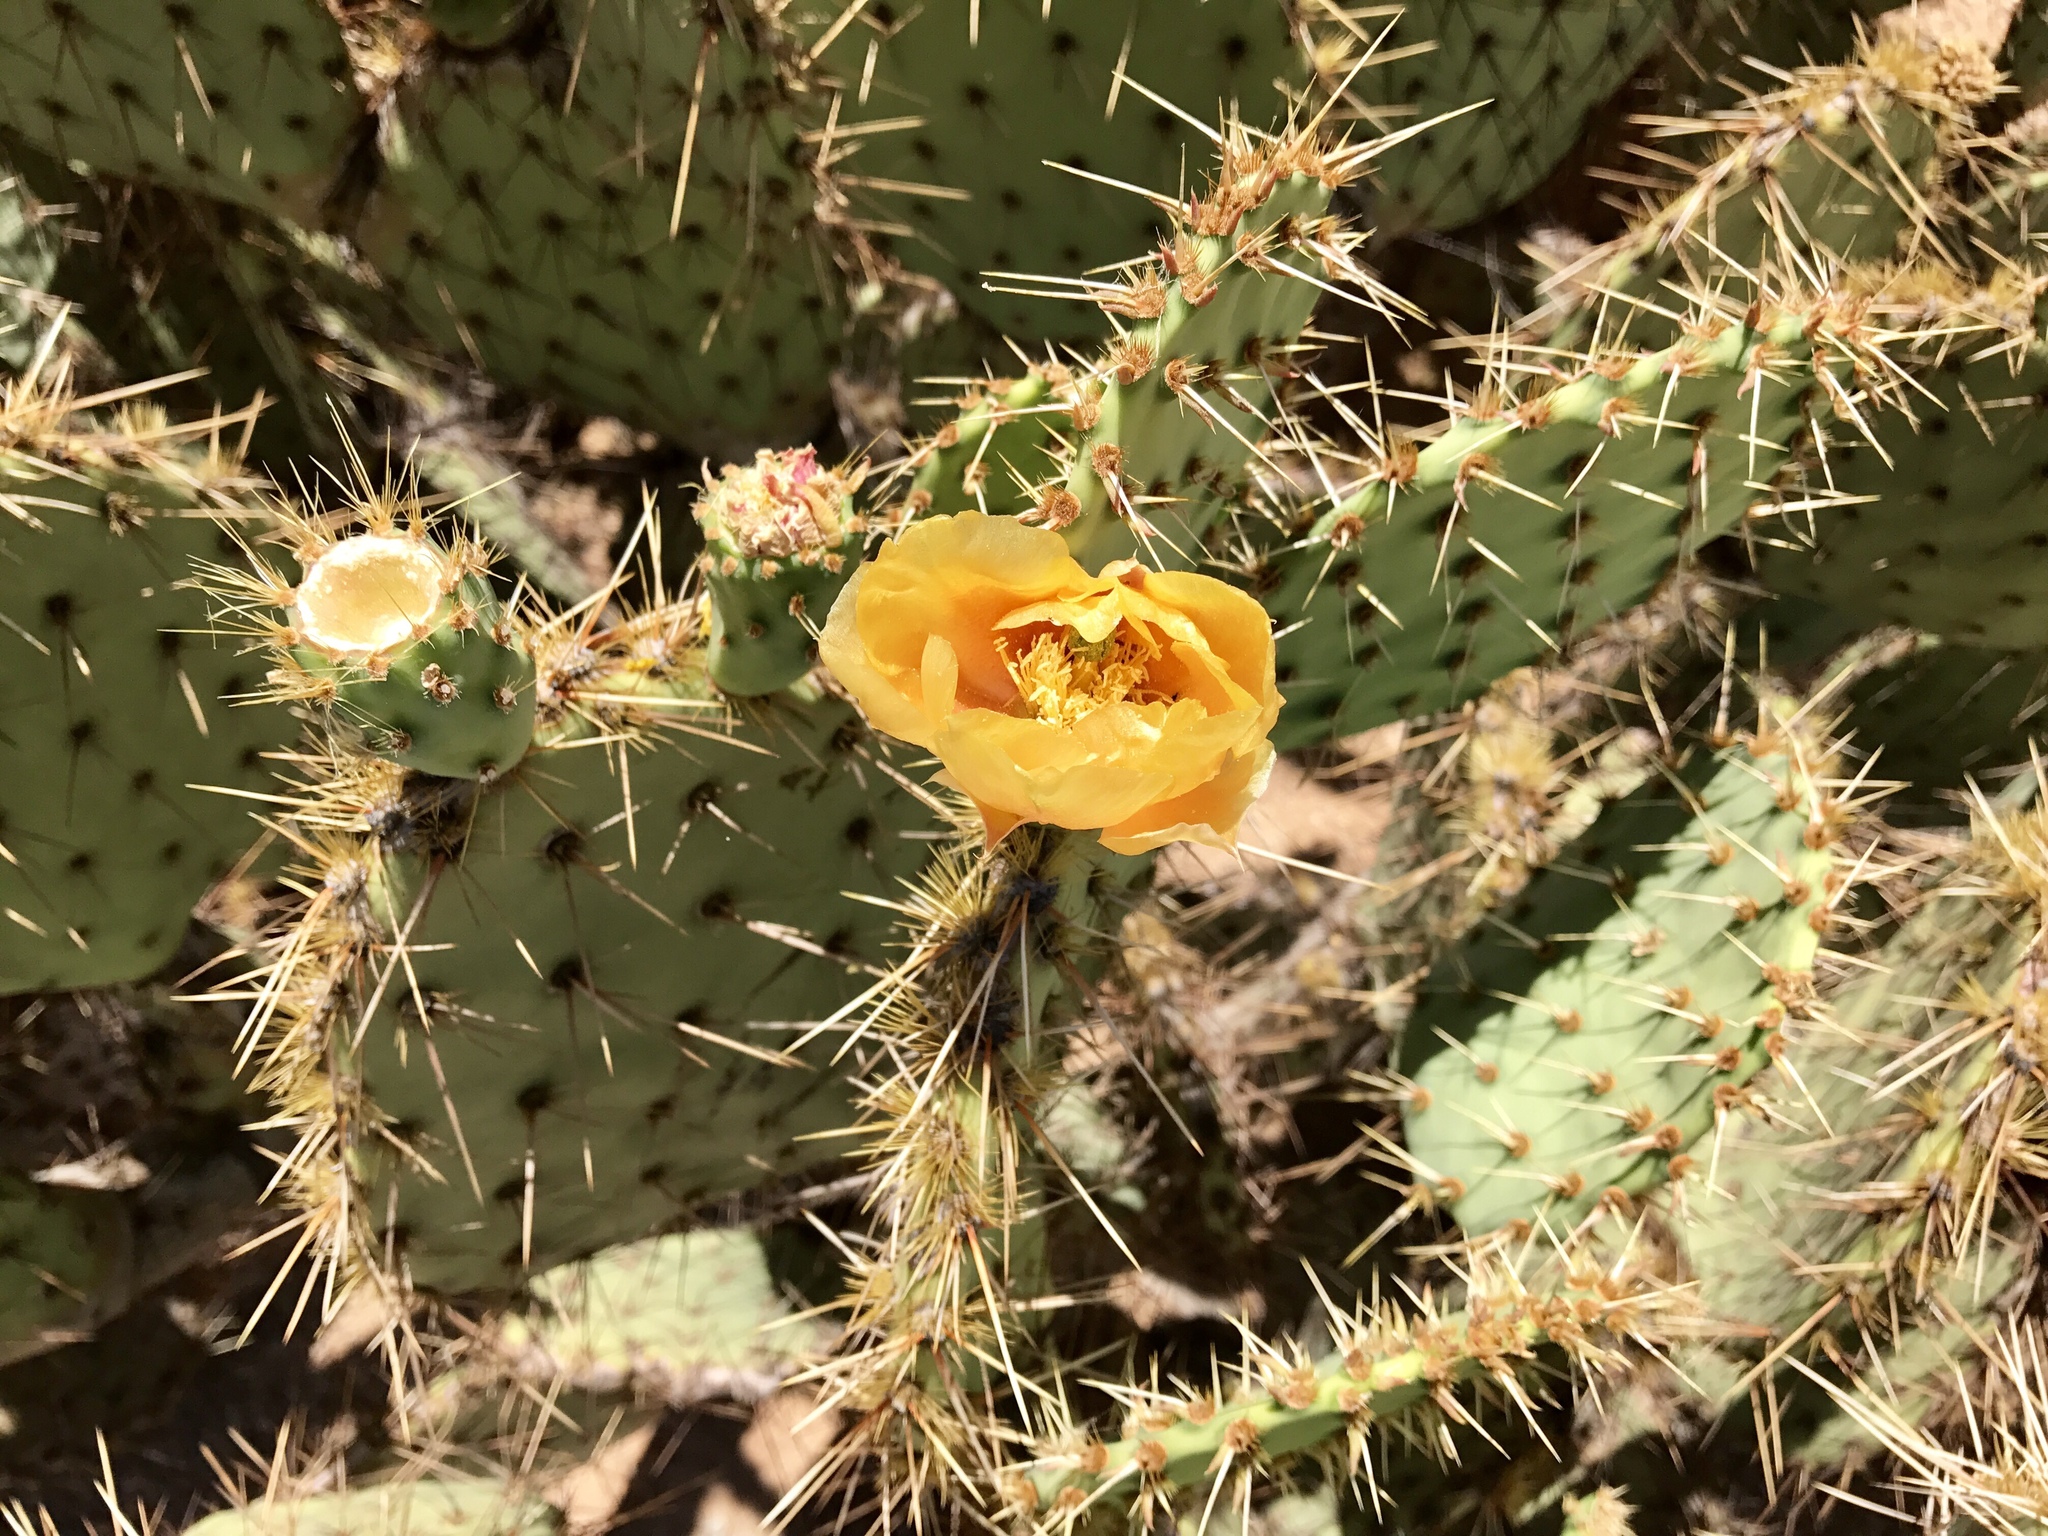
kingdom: Plantae
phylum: Tracheophyta
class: Magnoliopsida
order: Caryophyllales
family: Cactaceae
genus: Opuntia
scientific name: Opuntia engelmannii
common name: Cactus-apple
